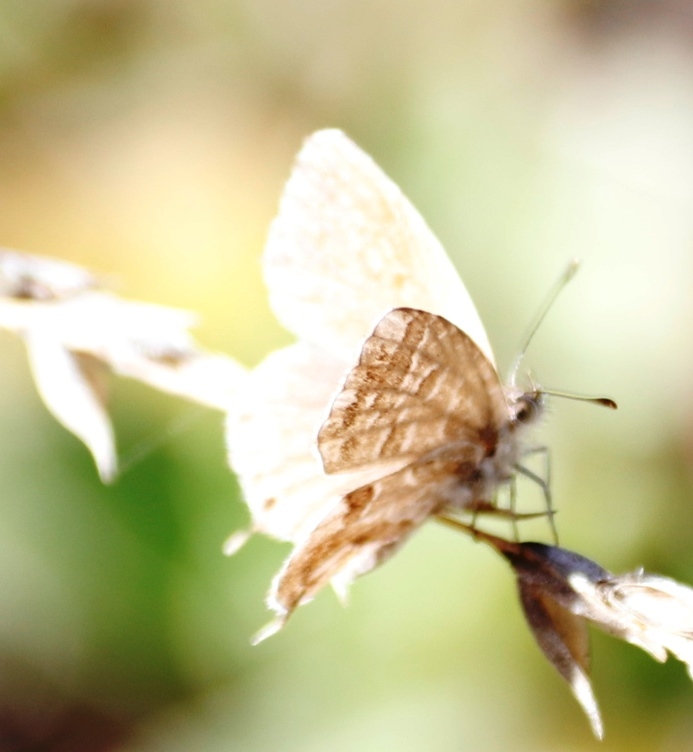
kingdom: Animalia
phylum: Arthropoda
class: Insecta
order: Lepidoptera
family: Lycaenidae
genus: Cacyreus
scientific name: Cacyreus
